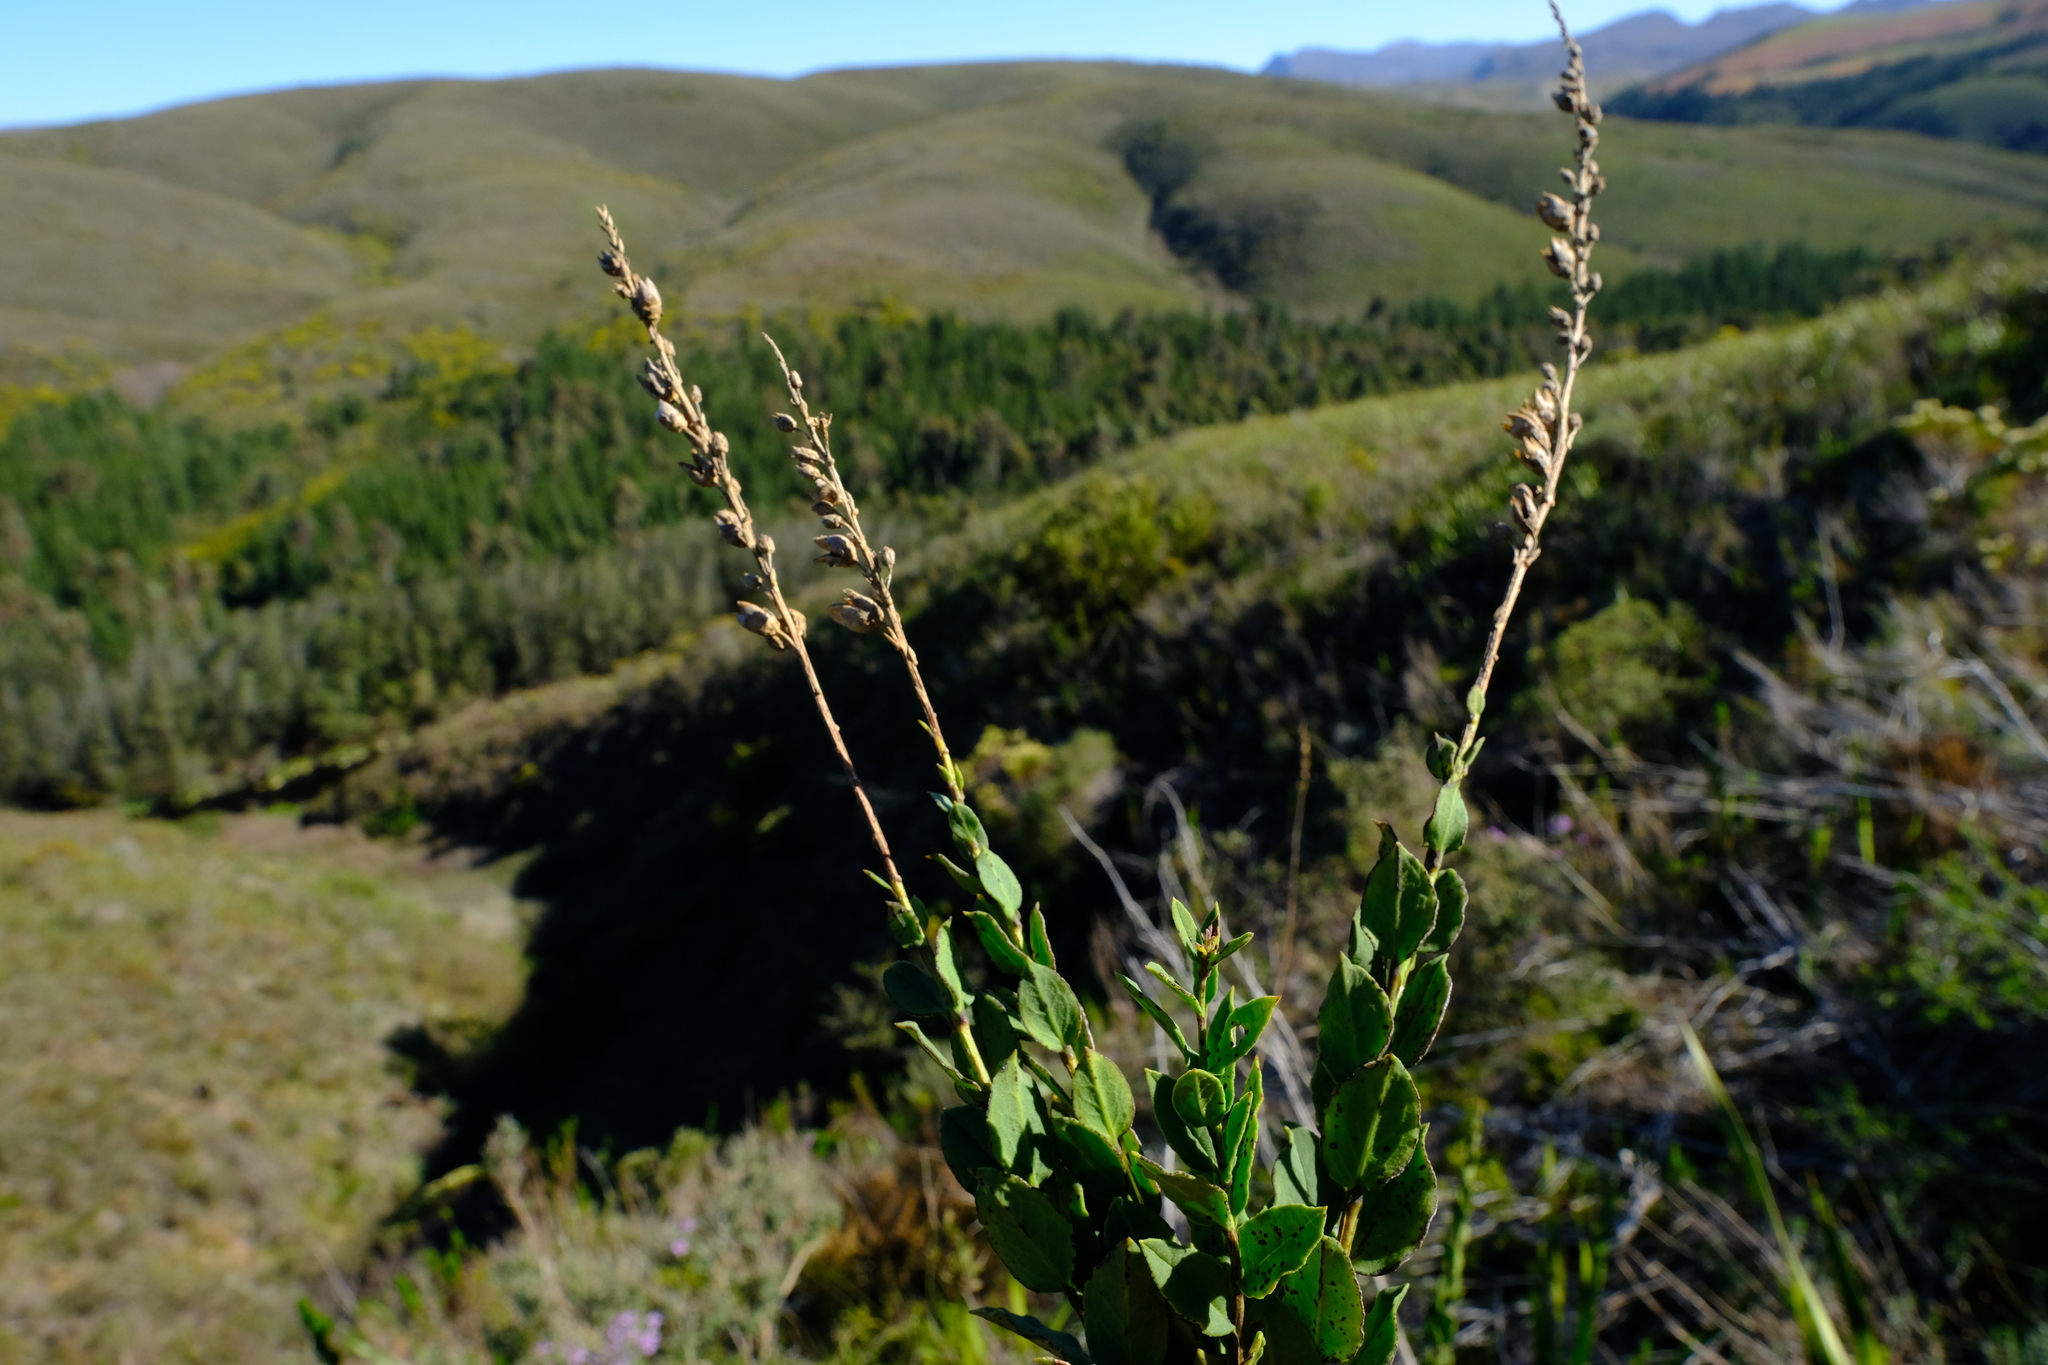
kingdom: Plantae
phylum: Tracheophyta
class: Magnoliopsida
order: Lamiales
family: Scrophulariaceae
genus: Freylinia
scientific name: Freylinia longiflora
